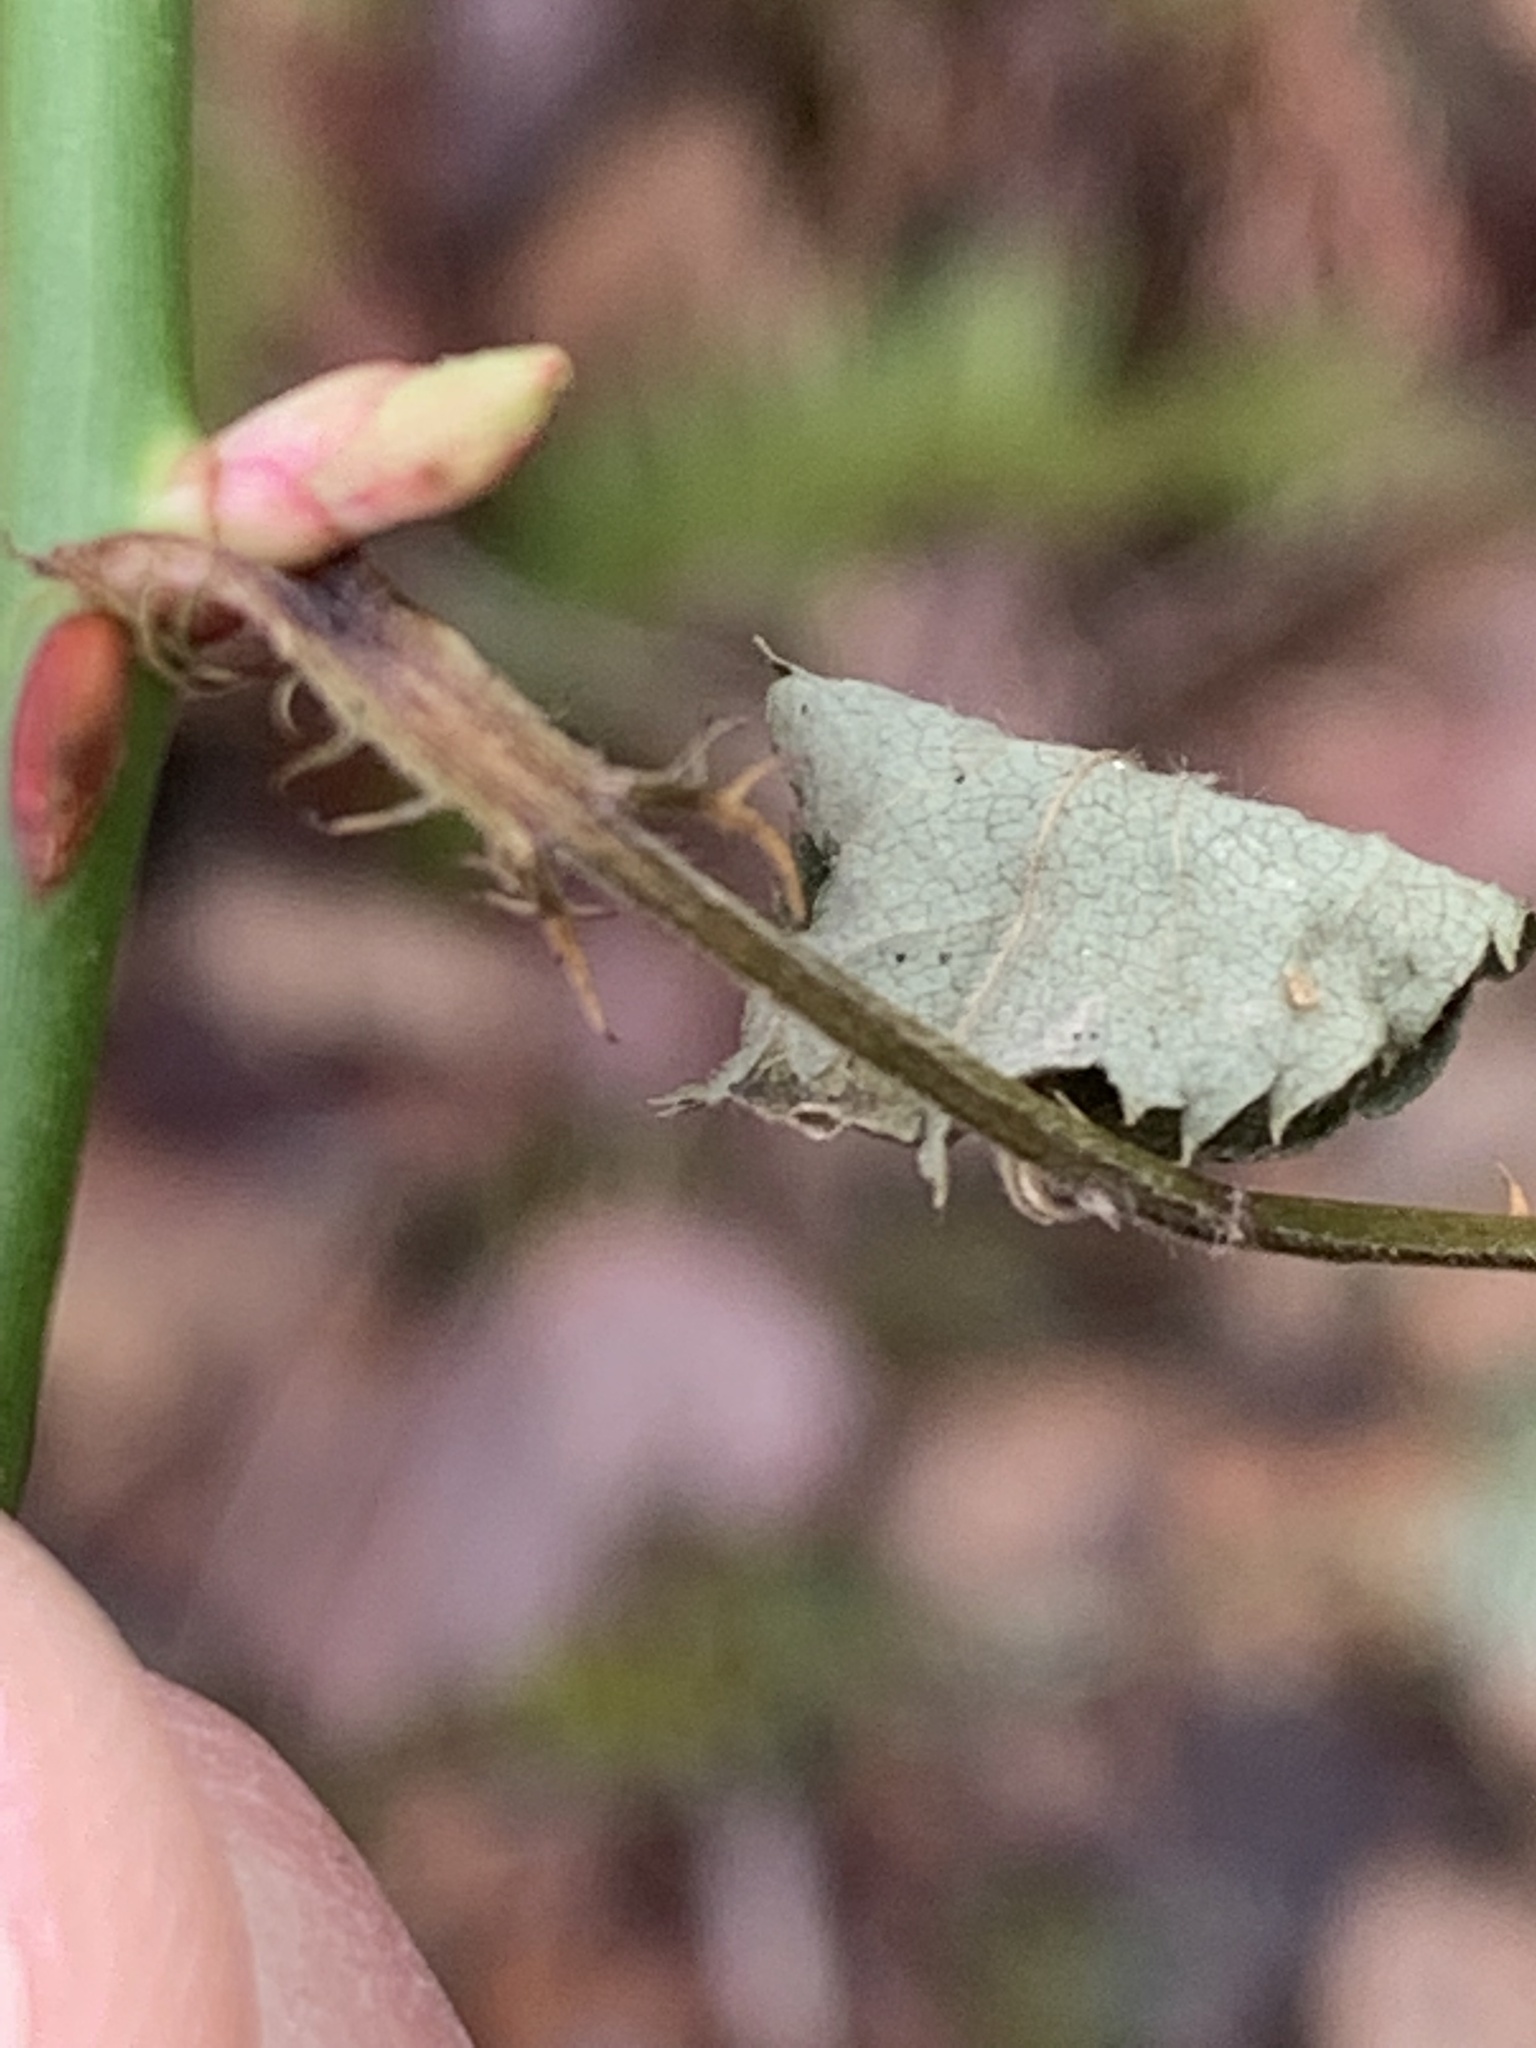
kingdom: Plantae
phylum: Tracheophyta
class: Magnoliopsida
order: Rosales
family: Rosaceae
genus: Rosa
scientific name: Rosa multiflora
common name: Multiflora rose
